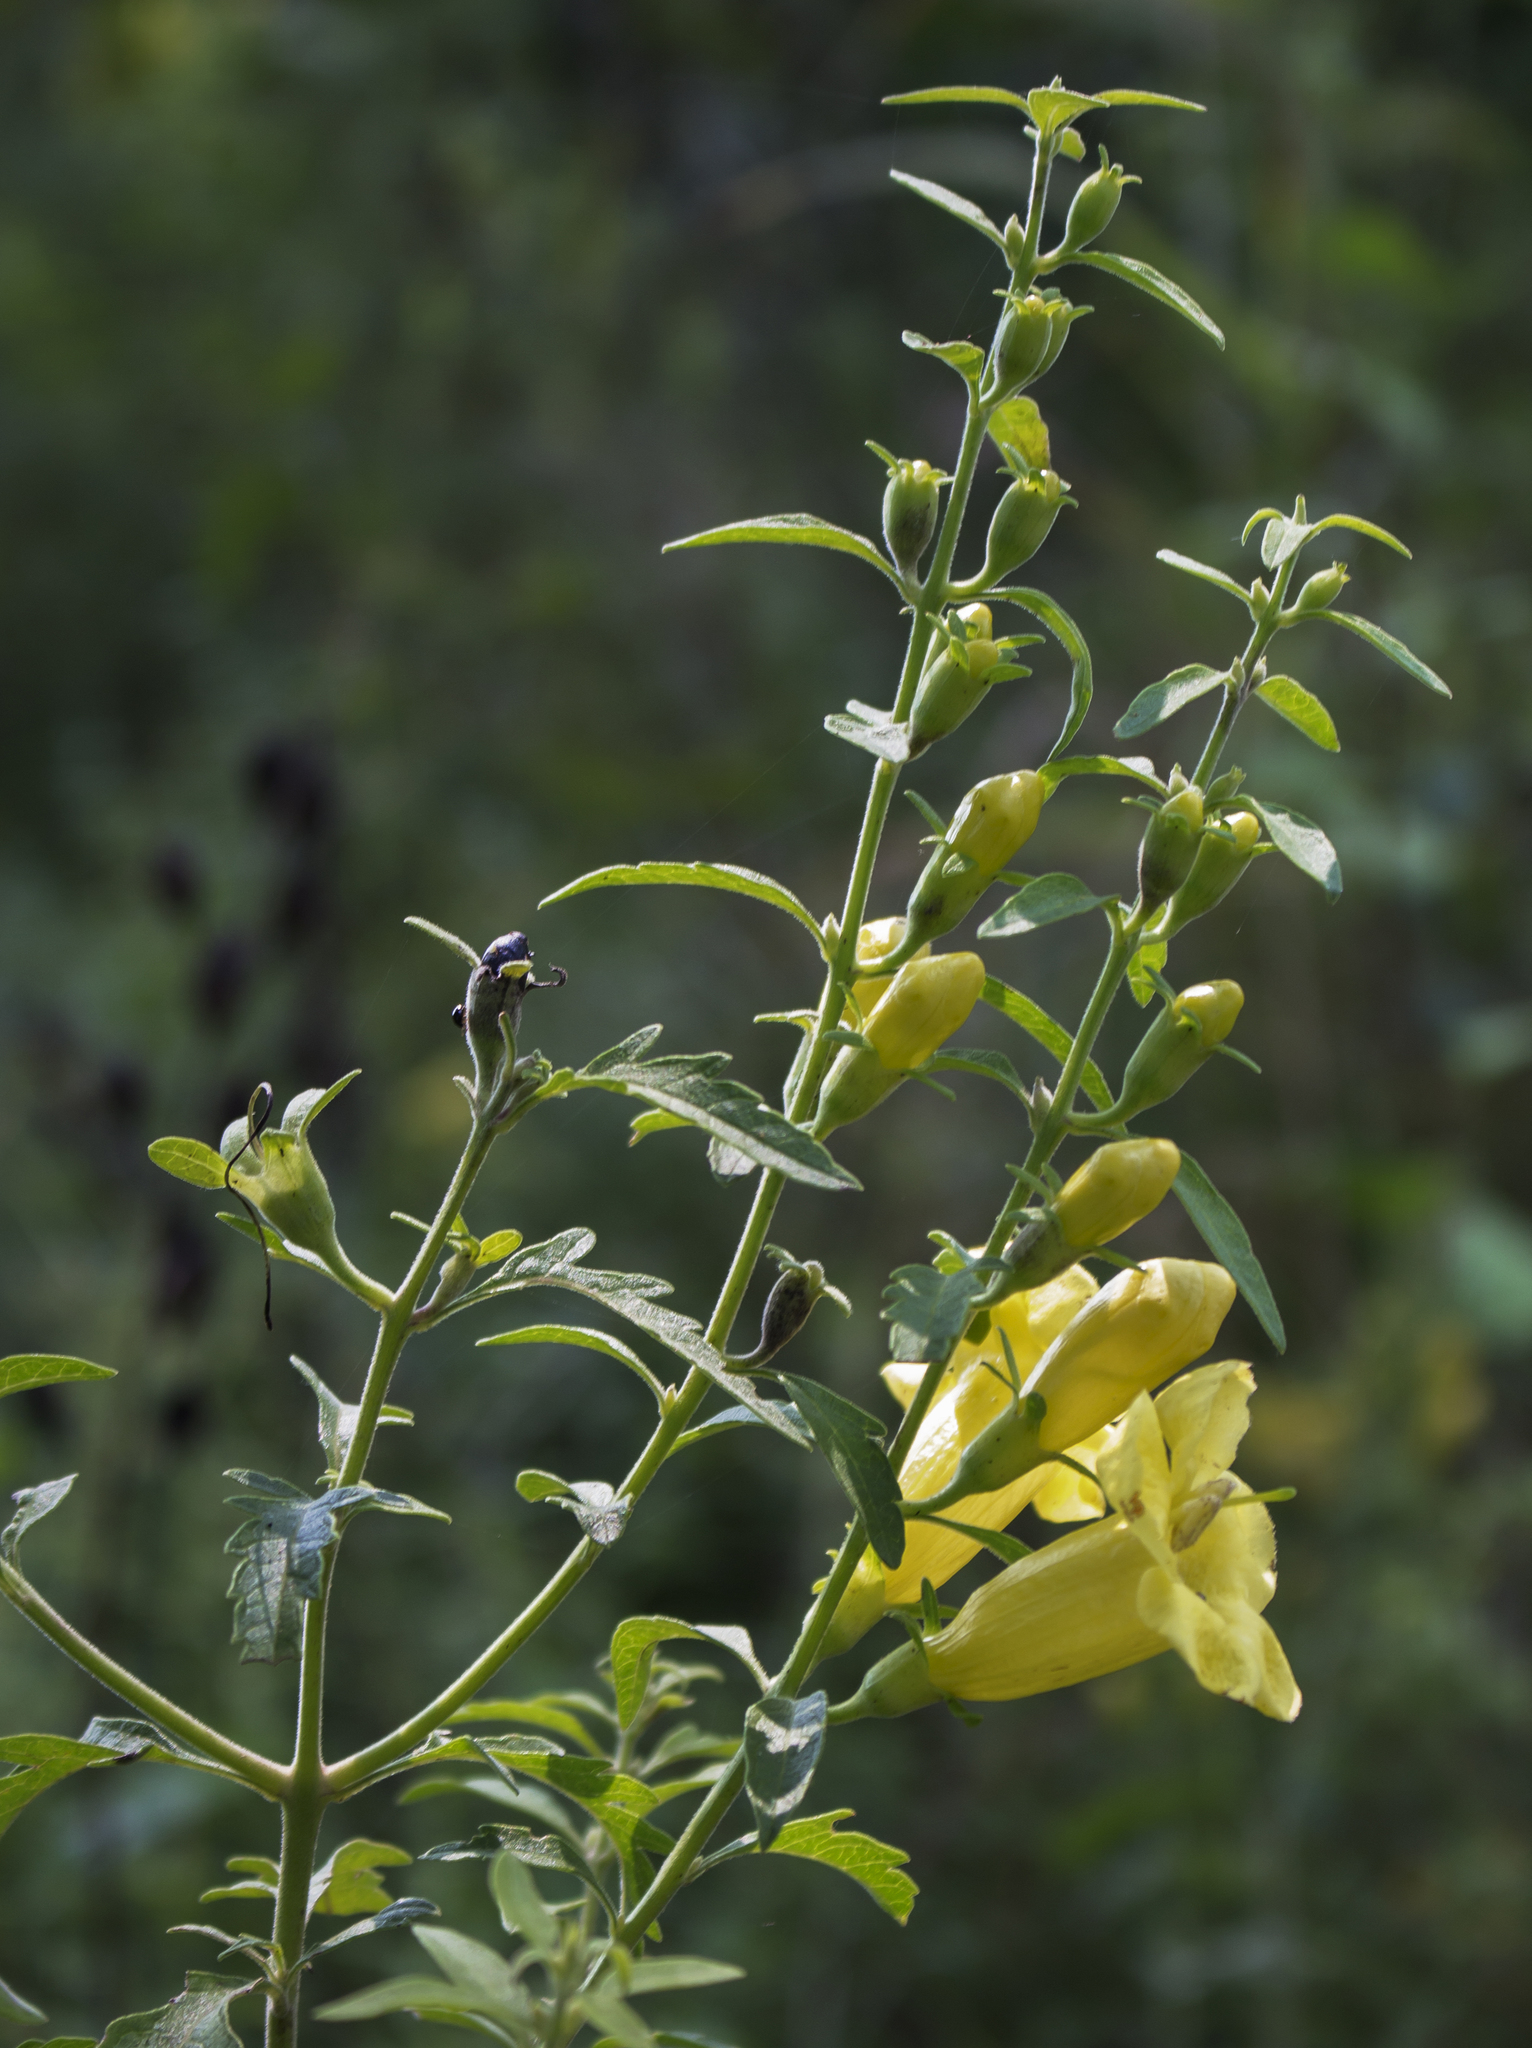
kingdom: Plantae
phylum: Tracheophyta
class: Magnoliopsida
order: Lamiales
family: Orobanchaceae
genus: Aureolaria
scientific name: Aureolaria grandiflora
